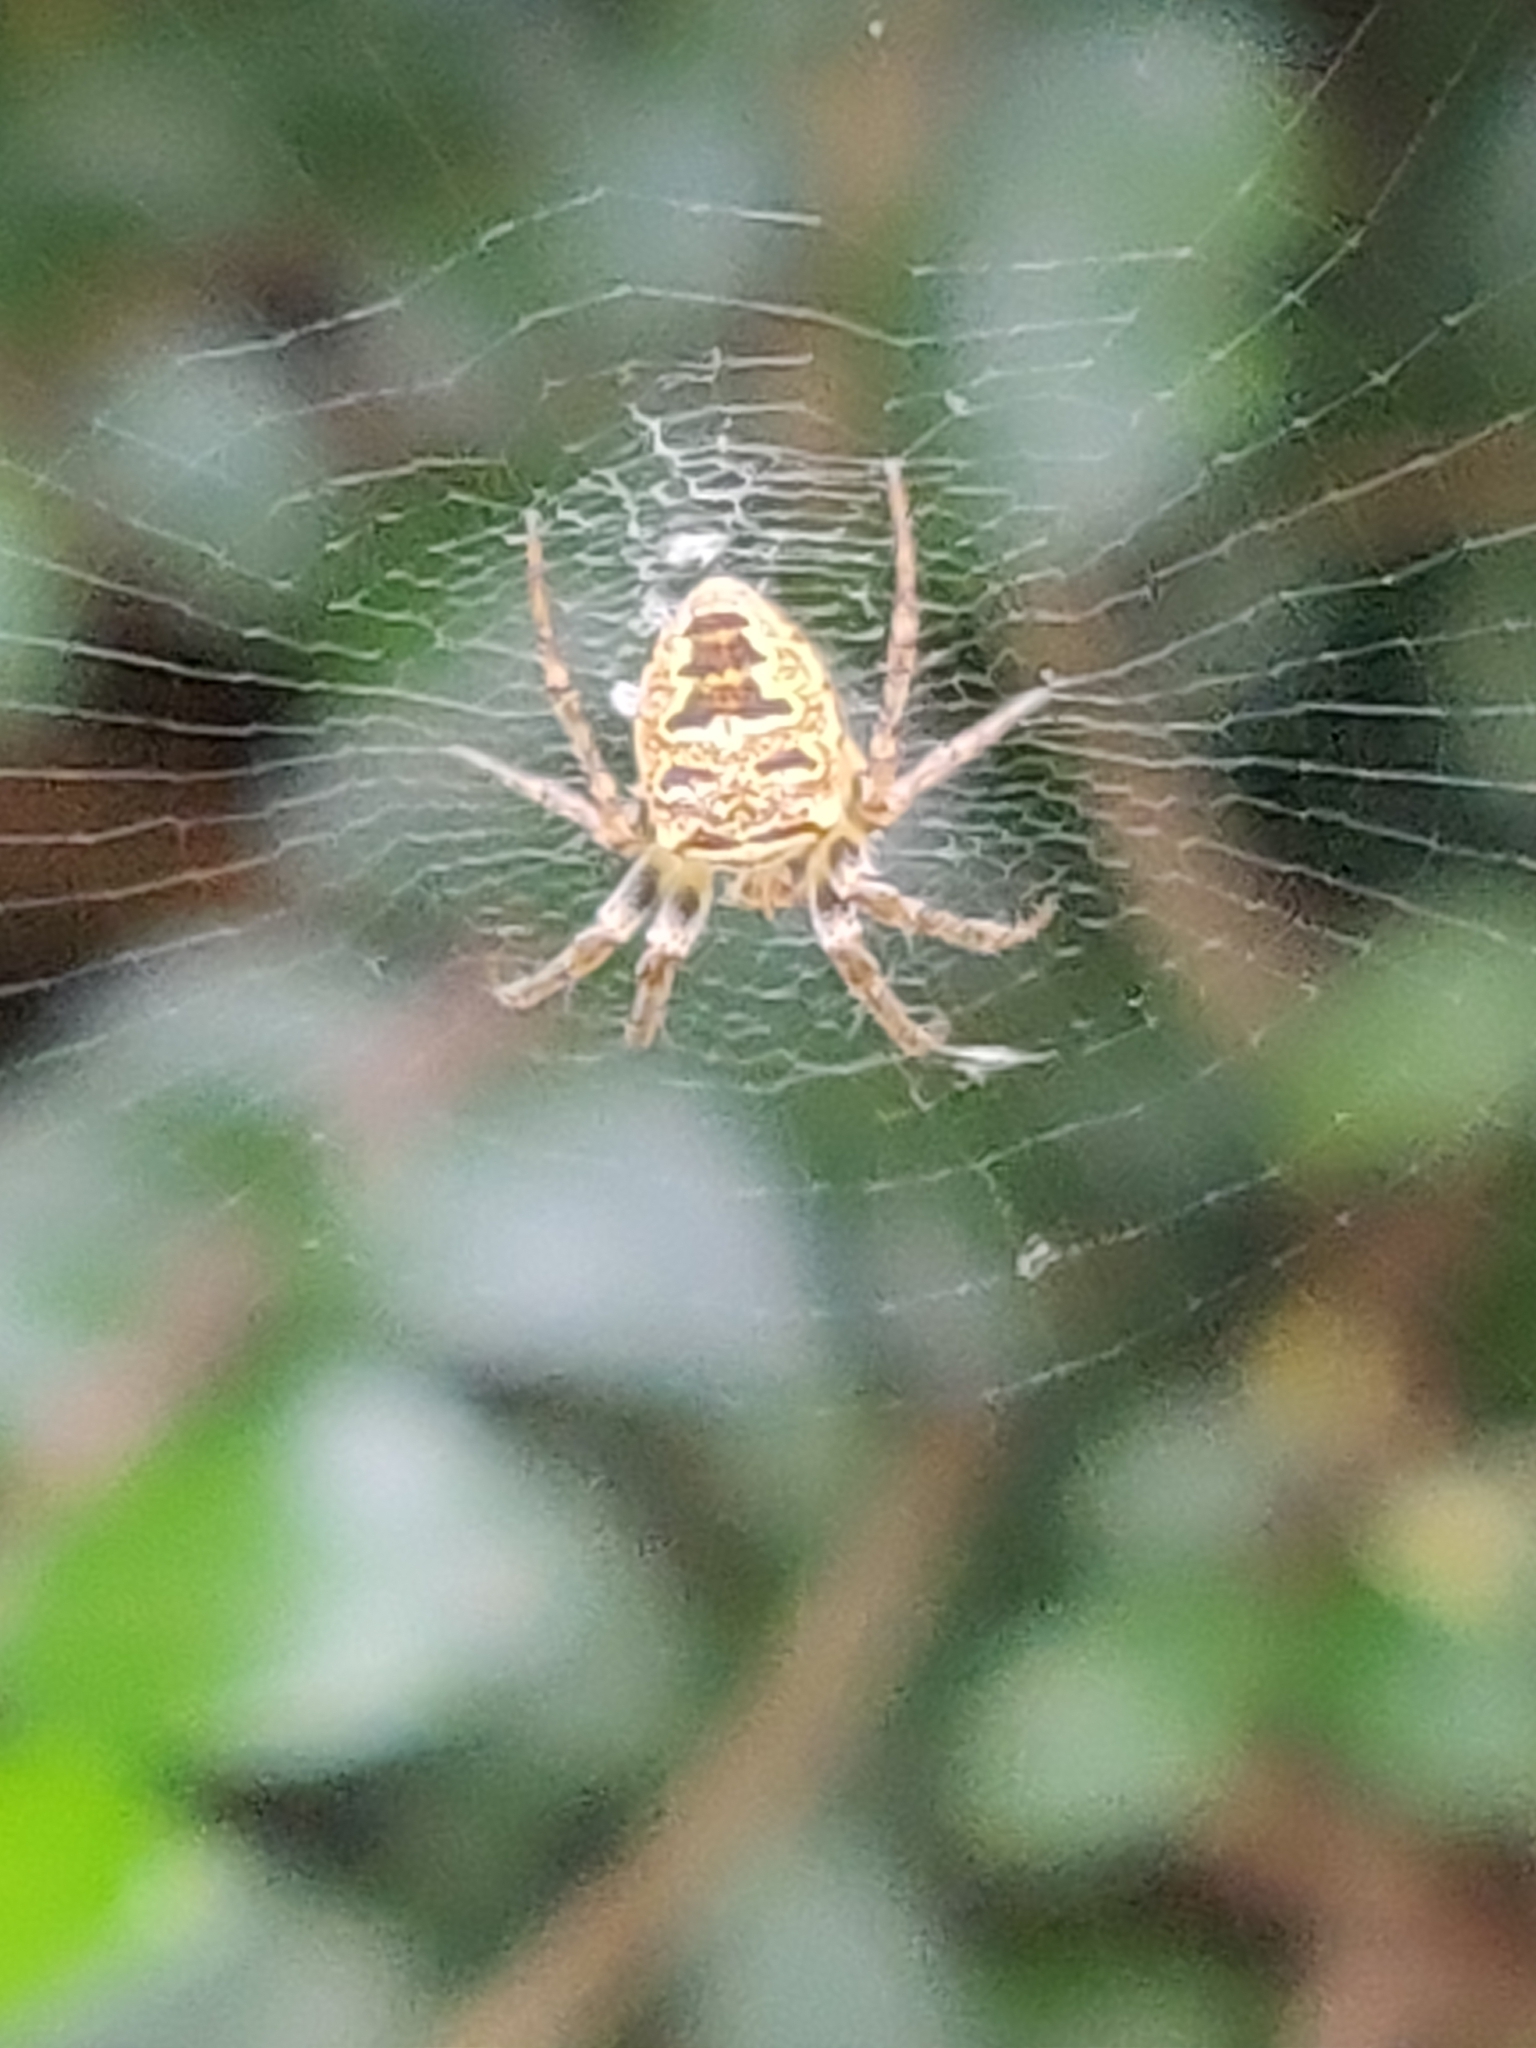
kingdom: Animalia
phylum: Arthropoda
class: Arachnida
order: Araneae
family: Araneidae
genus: Zilla
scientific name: Zilla diodia
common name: Zilla diodia
